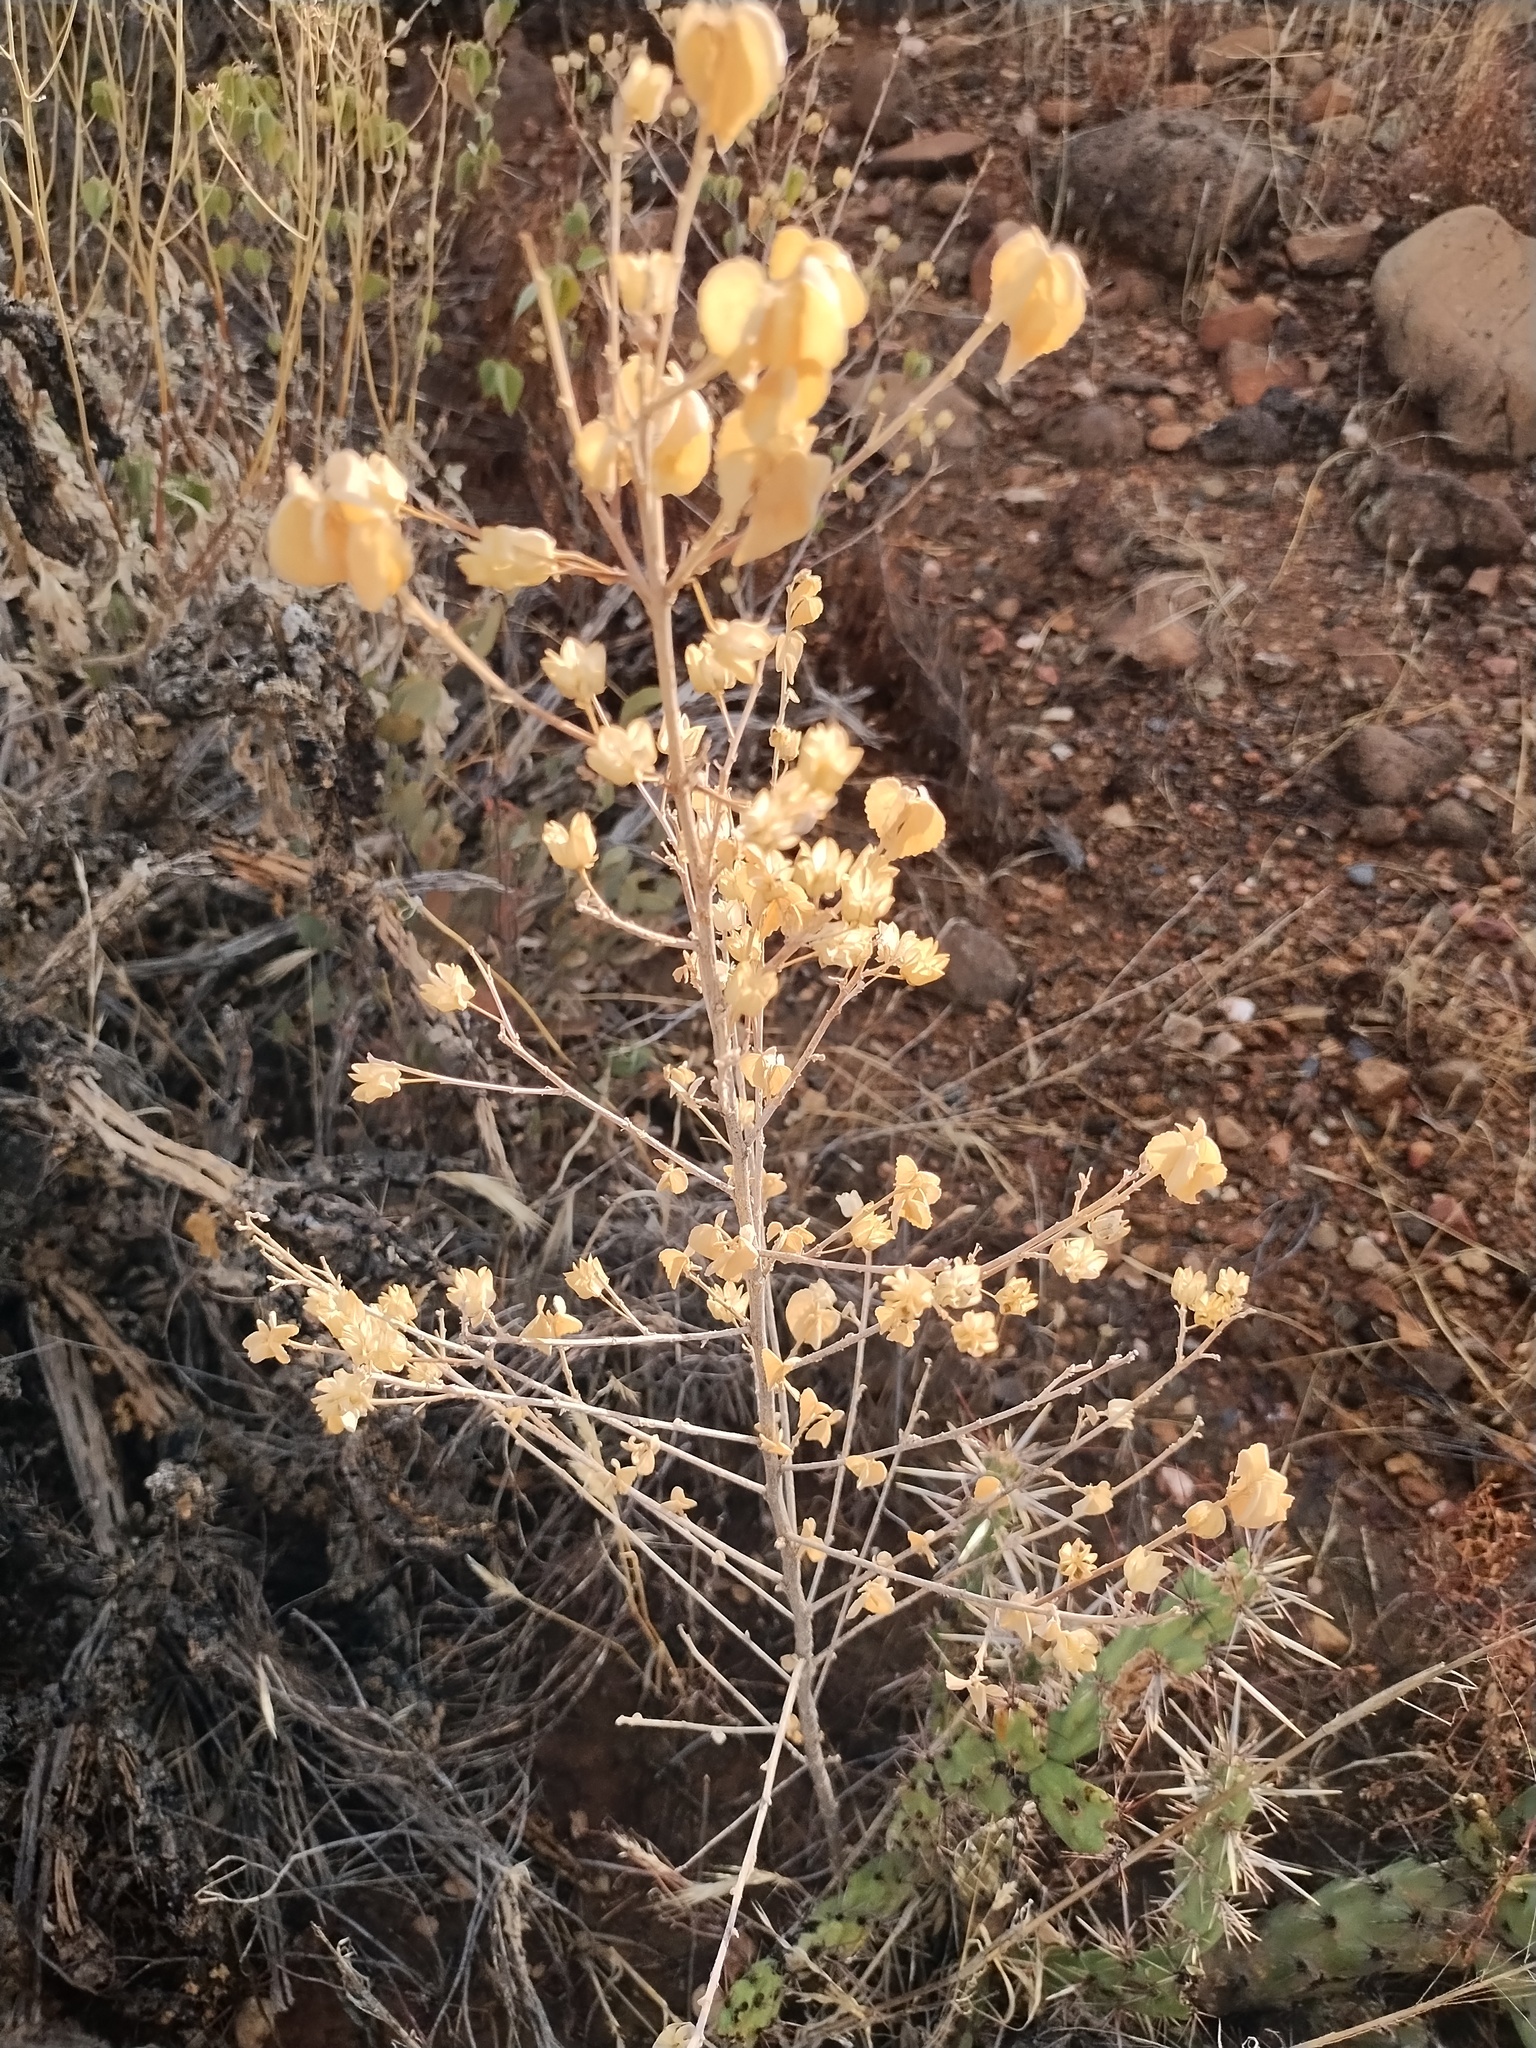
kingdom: Plantae
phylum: Tracheophyta
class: Magnoliopsida
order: Malvales
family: Malvaceae
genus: Abutilon
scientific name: Abutilon incanum
